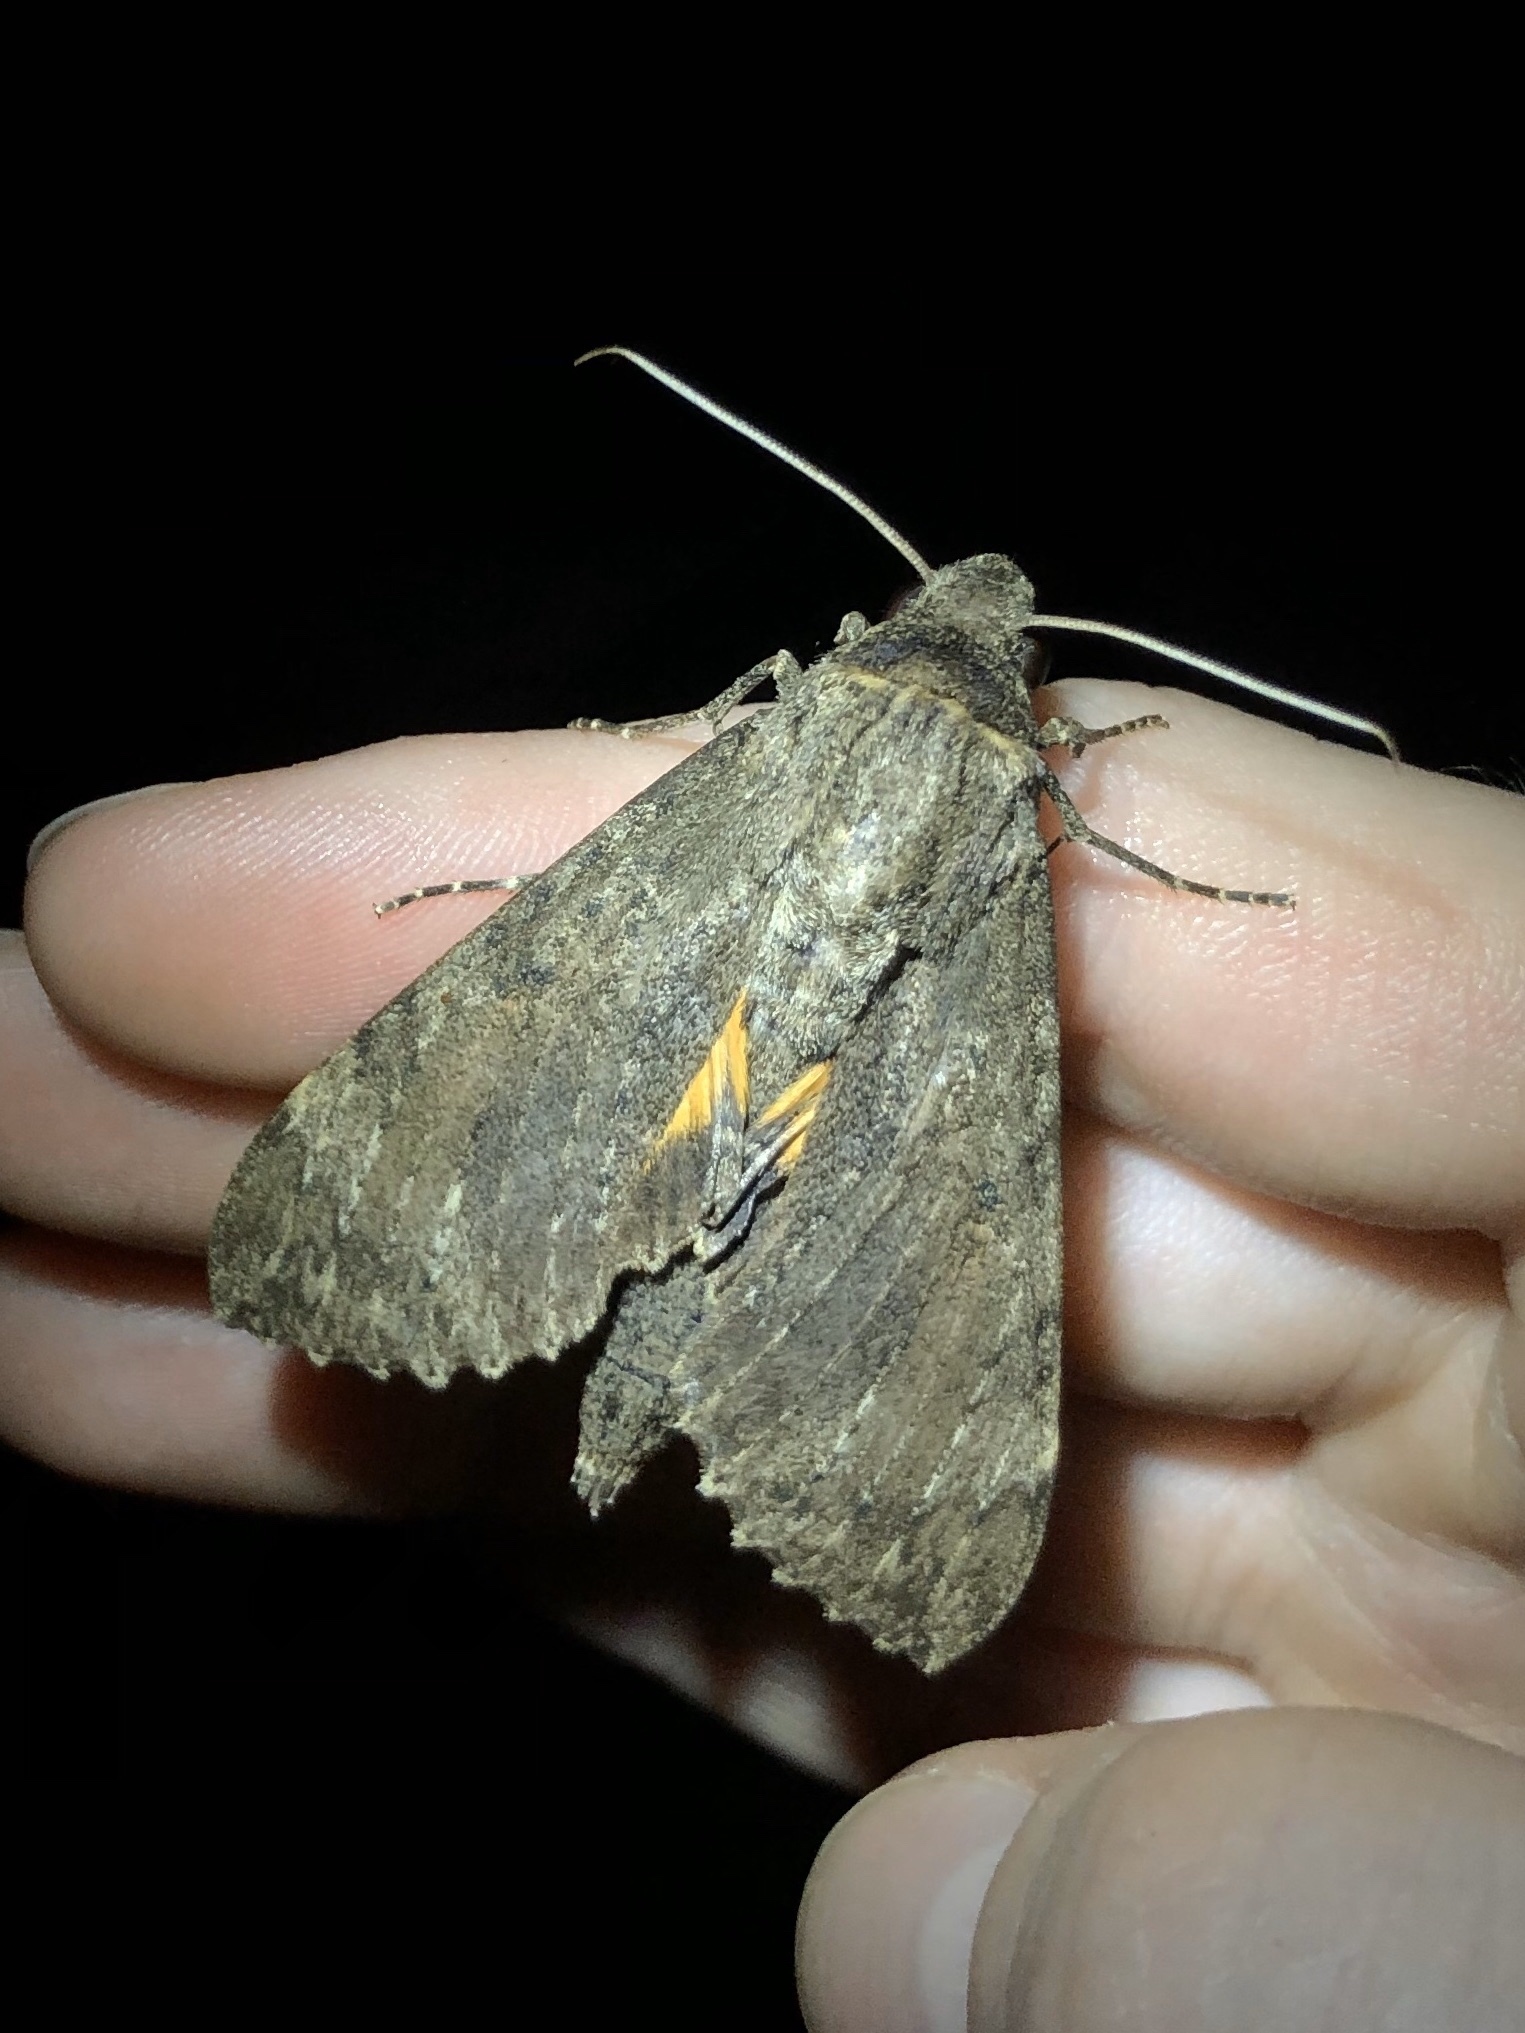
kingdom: Animalia
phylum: Arthropoda
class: Insecta
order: Lepidoptera
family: Sphingidae
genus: Isognathus
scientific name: Isognathus scyron
